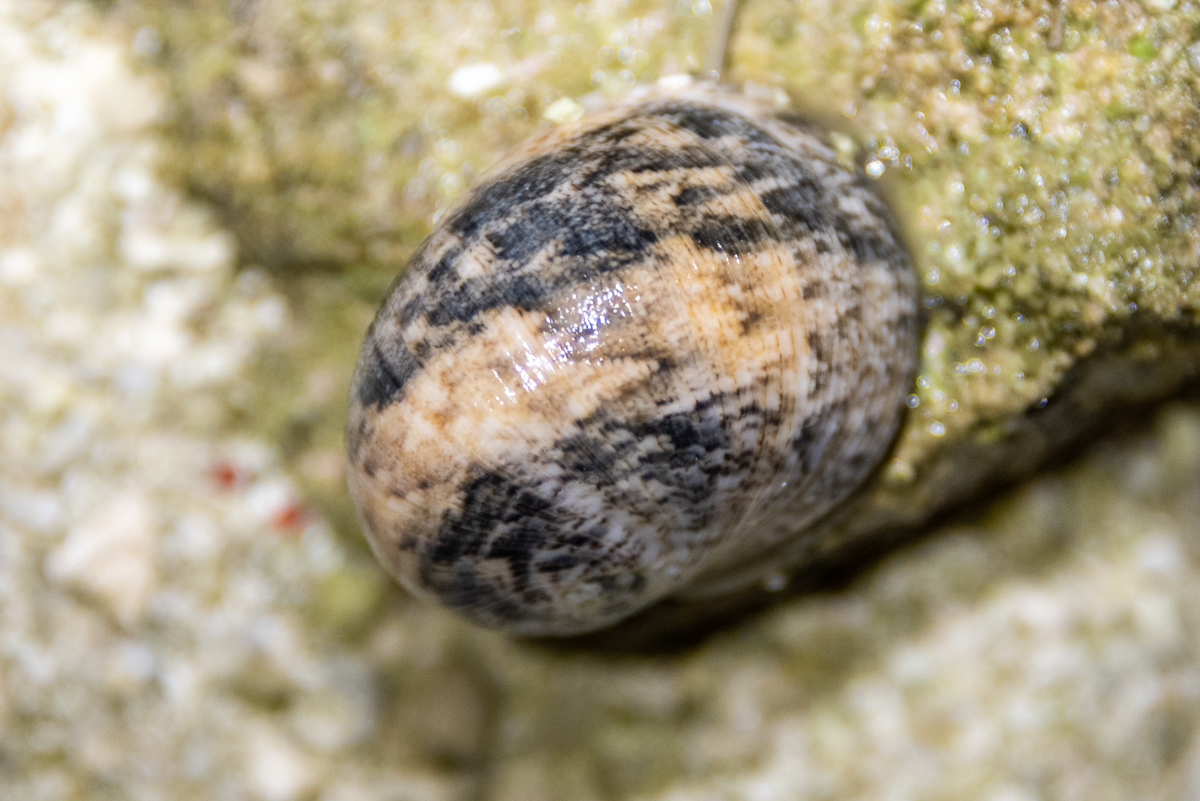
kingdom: Animalia
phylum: Mollusca
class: Gastropoda
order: Cycloneritida
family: Neritidae
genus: Nerita
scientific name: Nerita polita
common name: Polished nerite
